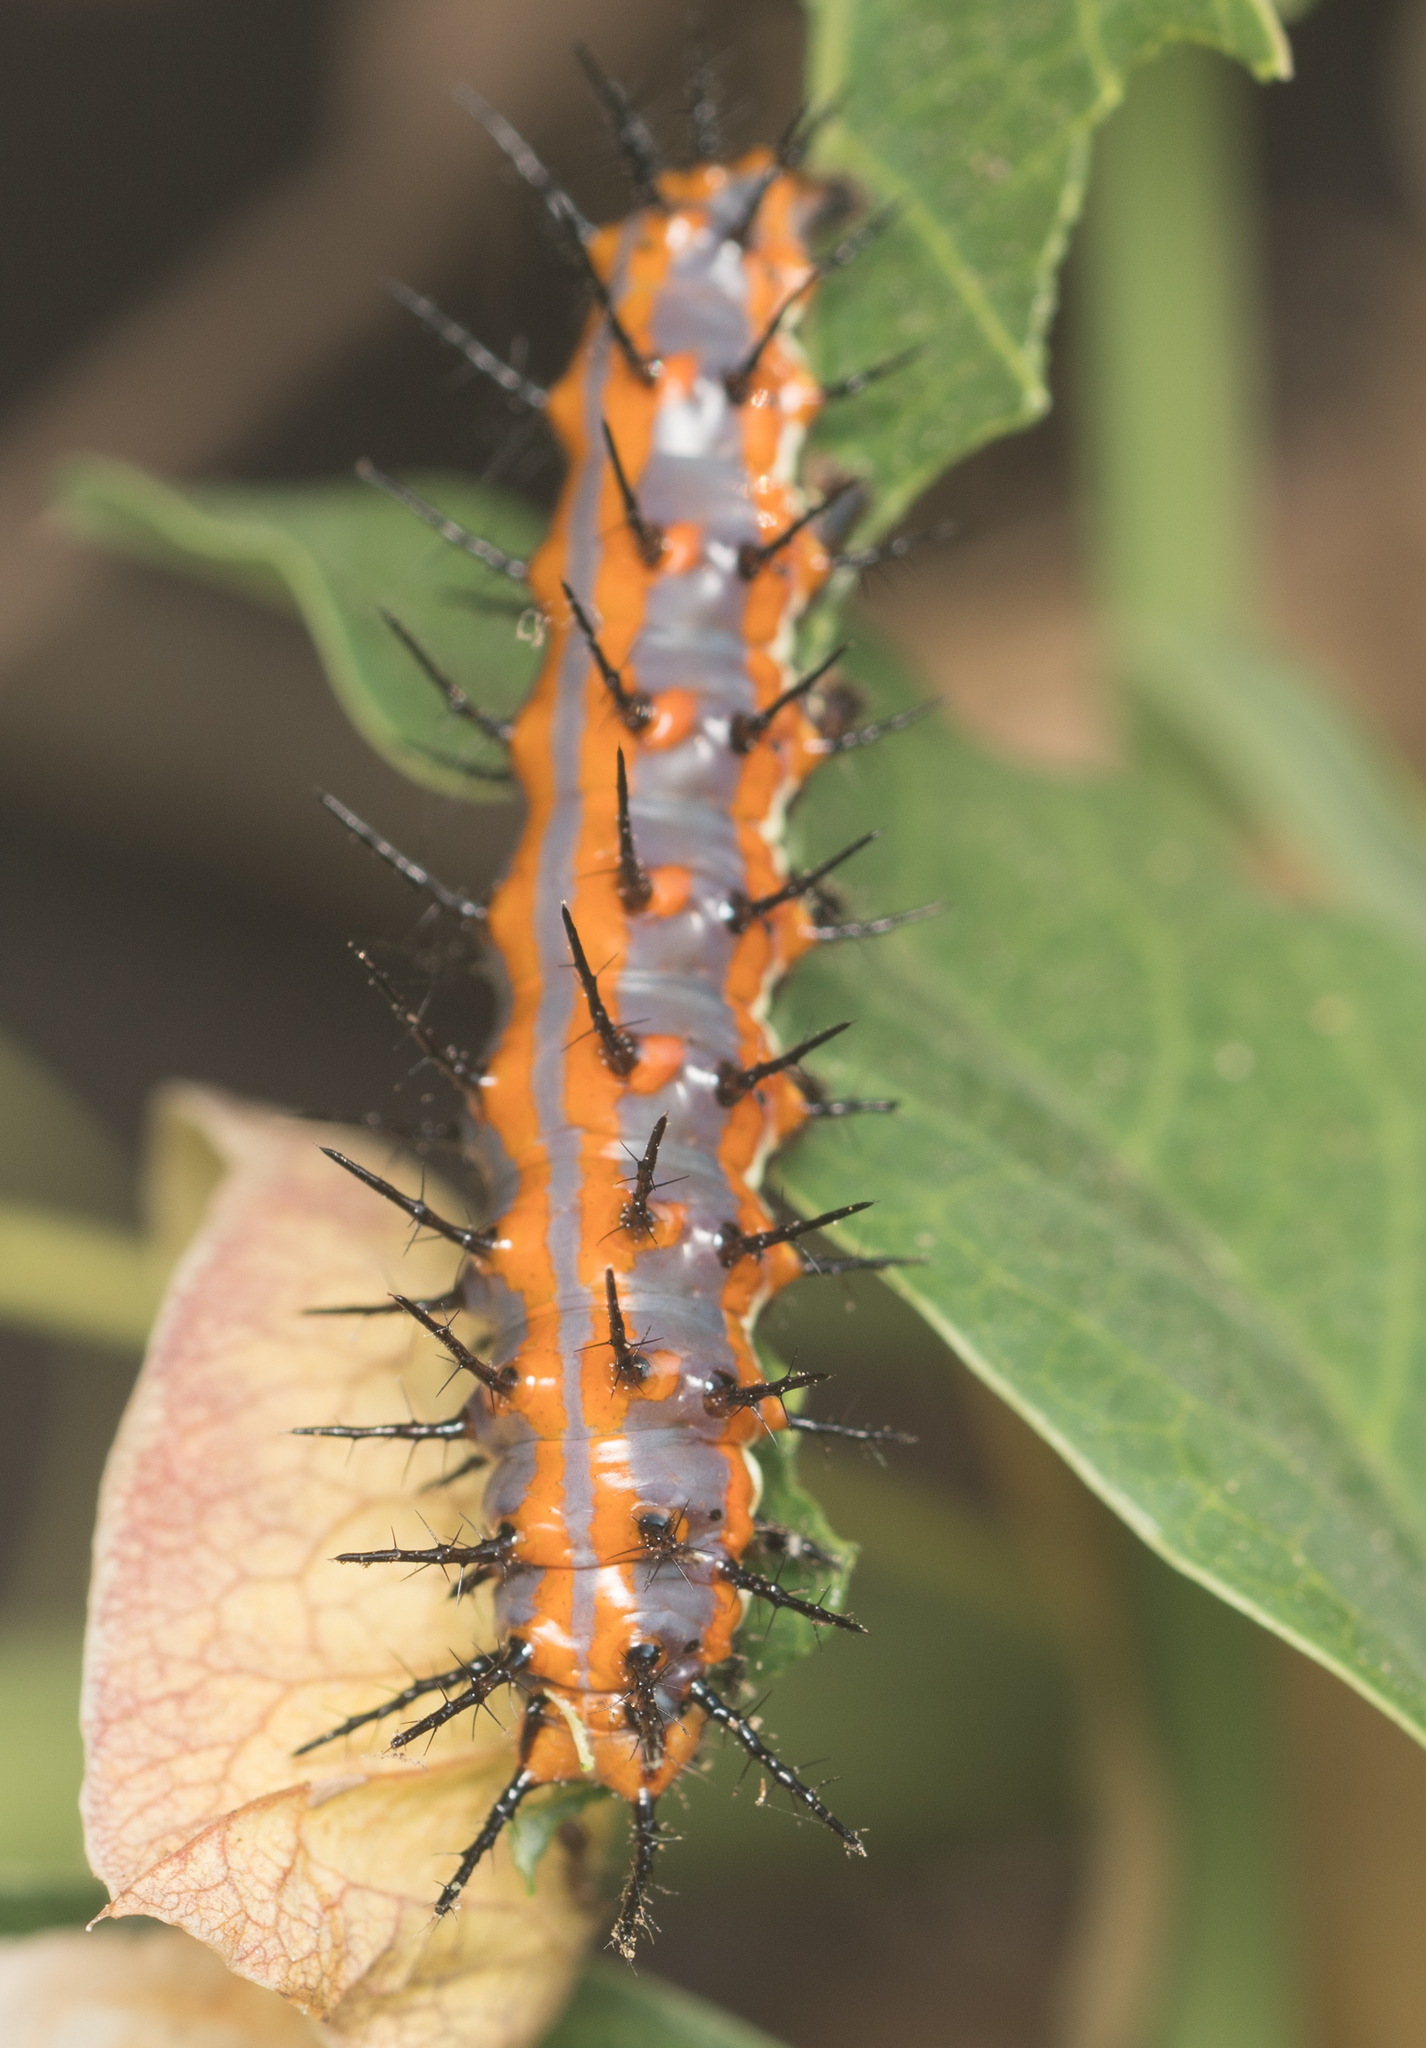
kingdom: Animalia
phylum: Arthropoda
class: Insecta
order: Lepidoptera
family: Nymphalidae
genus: Dione
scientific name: Dione vanillae
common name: Gulf fritillary
